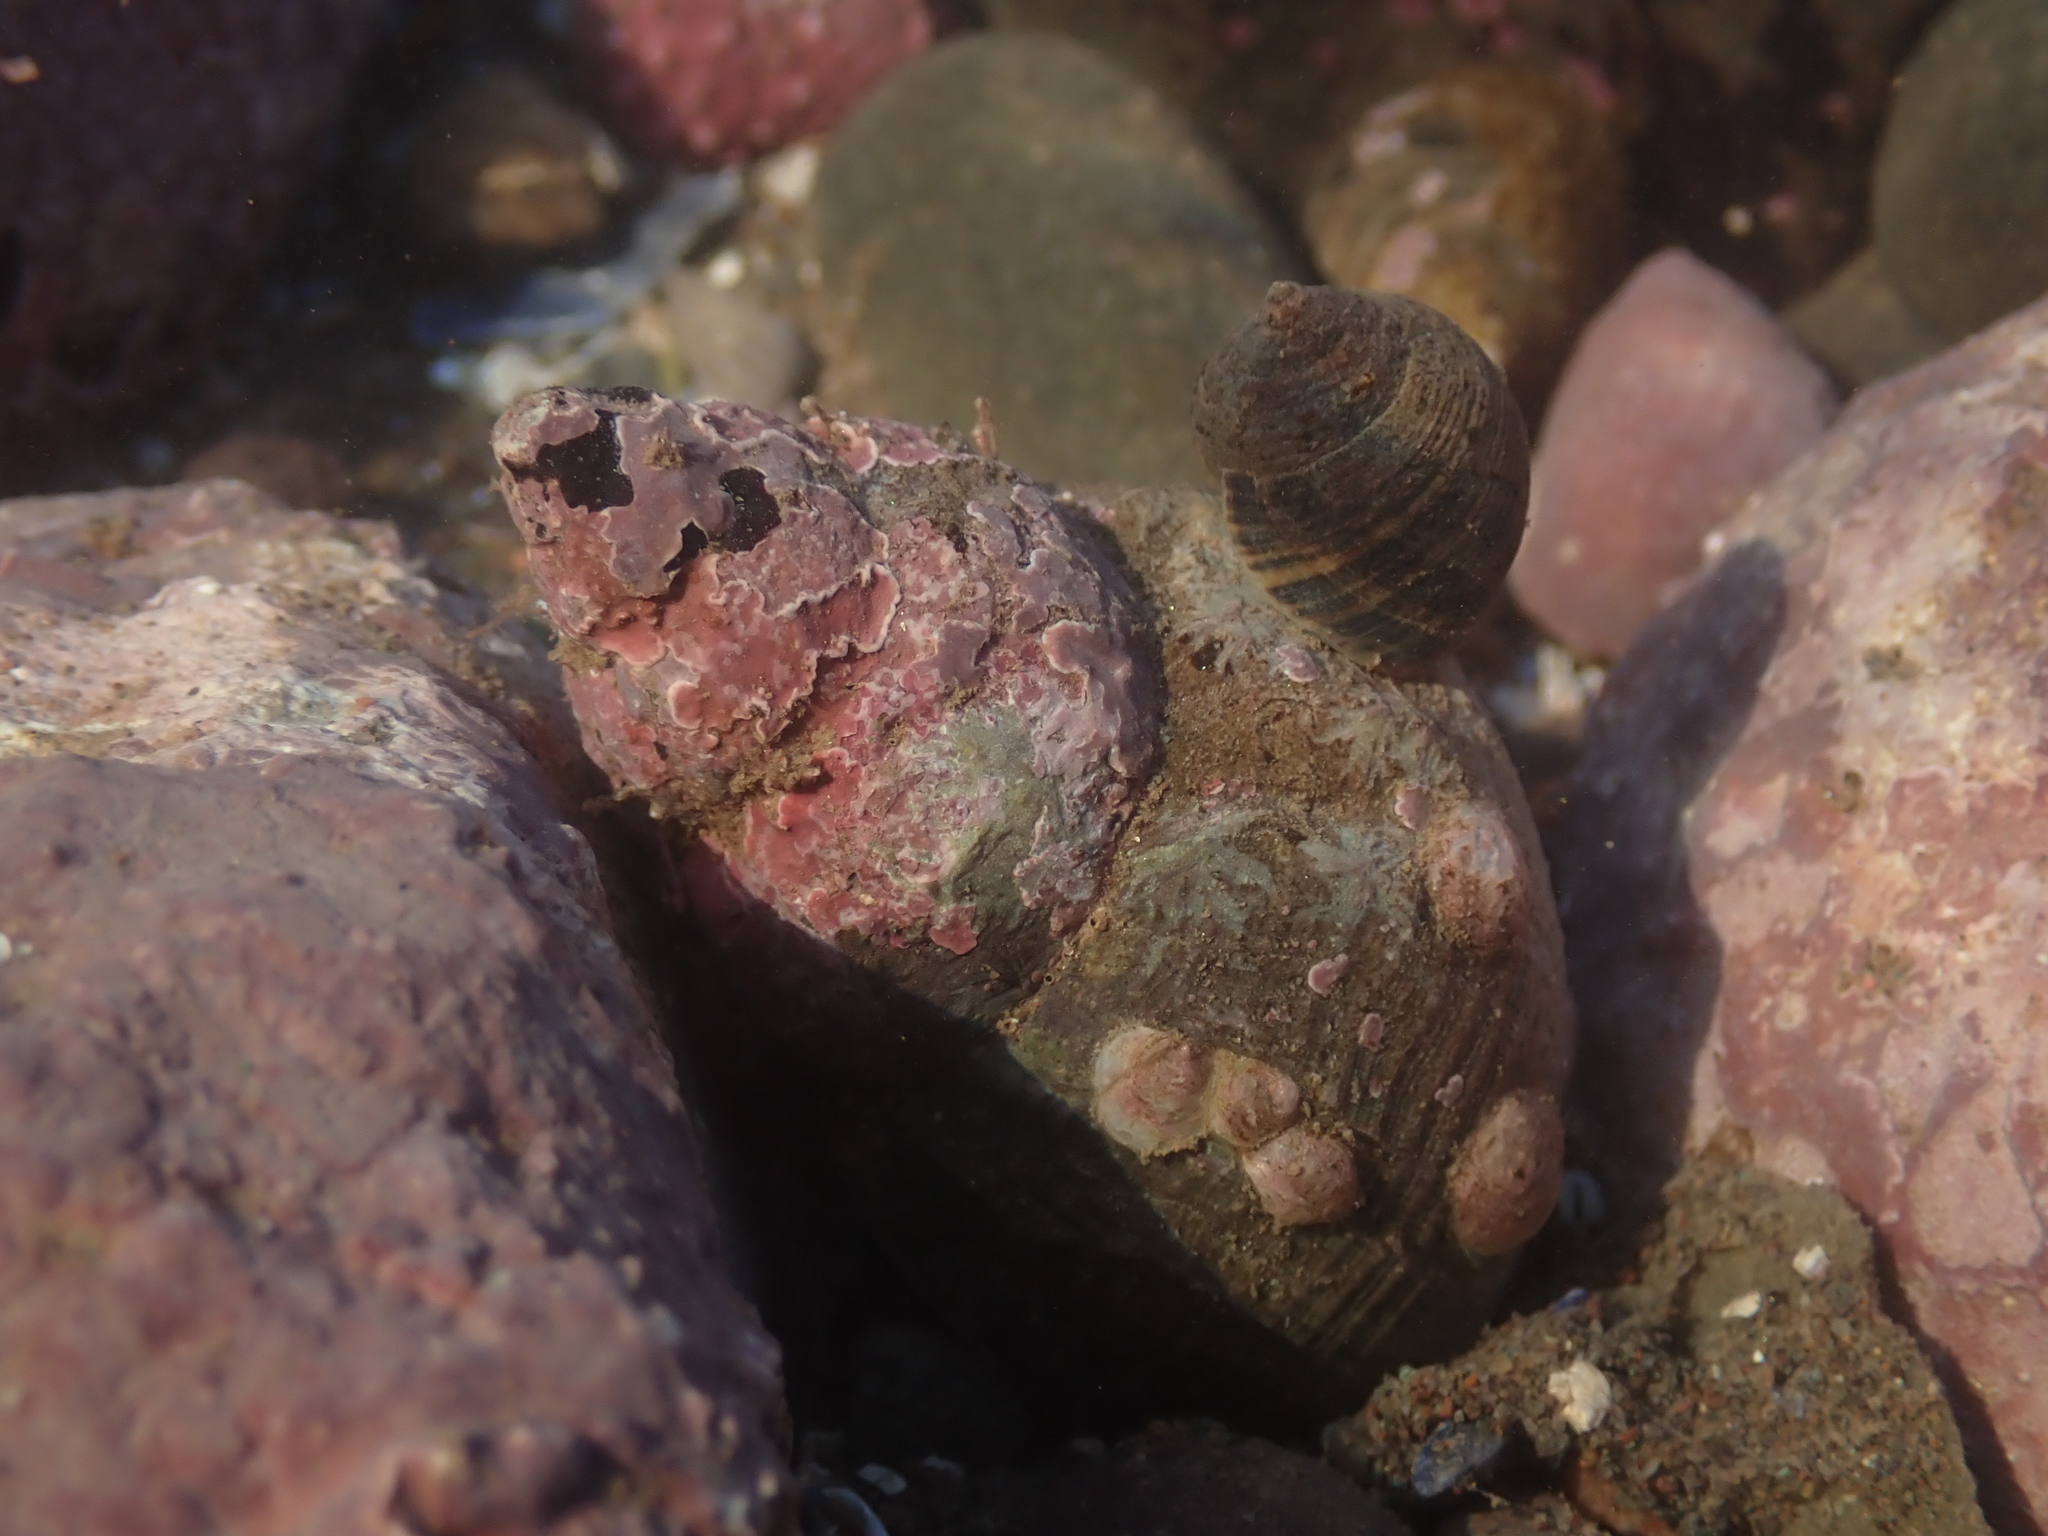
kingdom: Animalia
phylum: Mollusca
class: Gastropoda
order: Neogastropoda
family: Buccinidae
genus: Buccinum
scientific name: Buccinum undatum
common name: Common whelk
